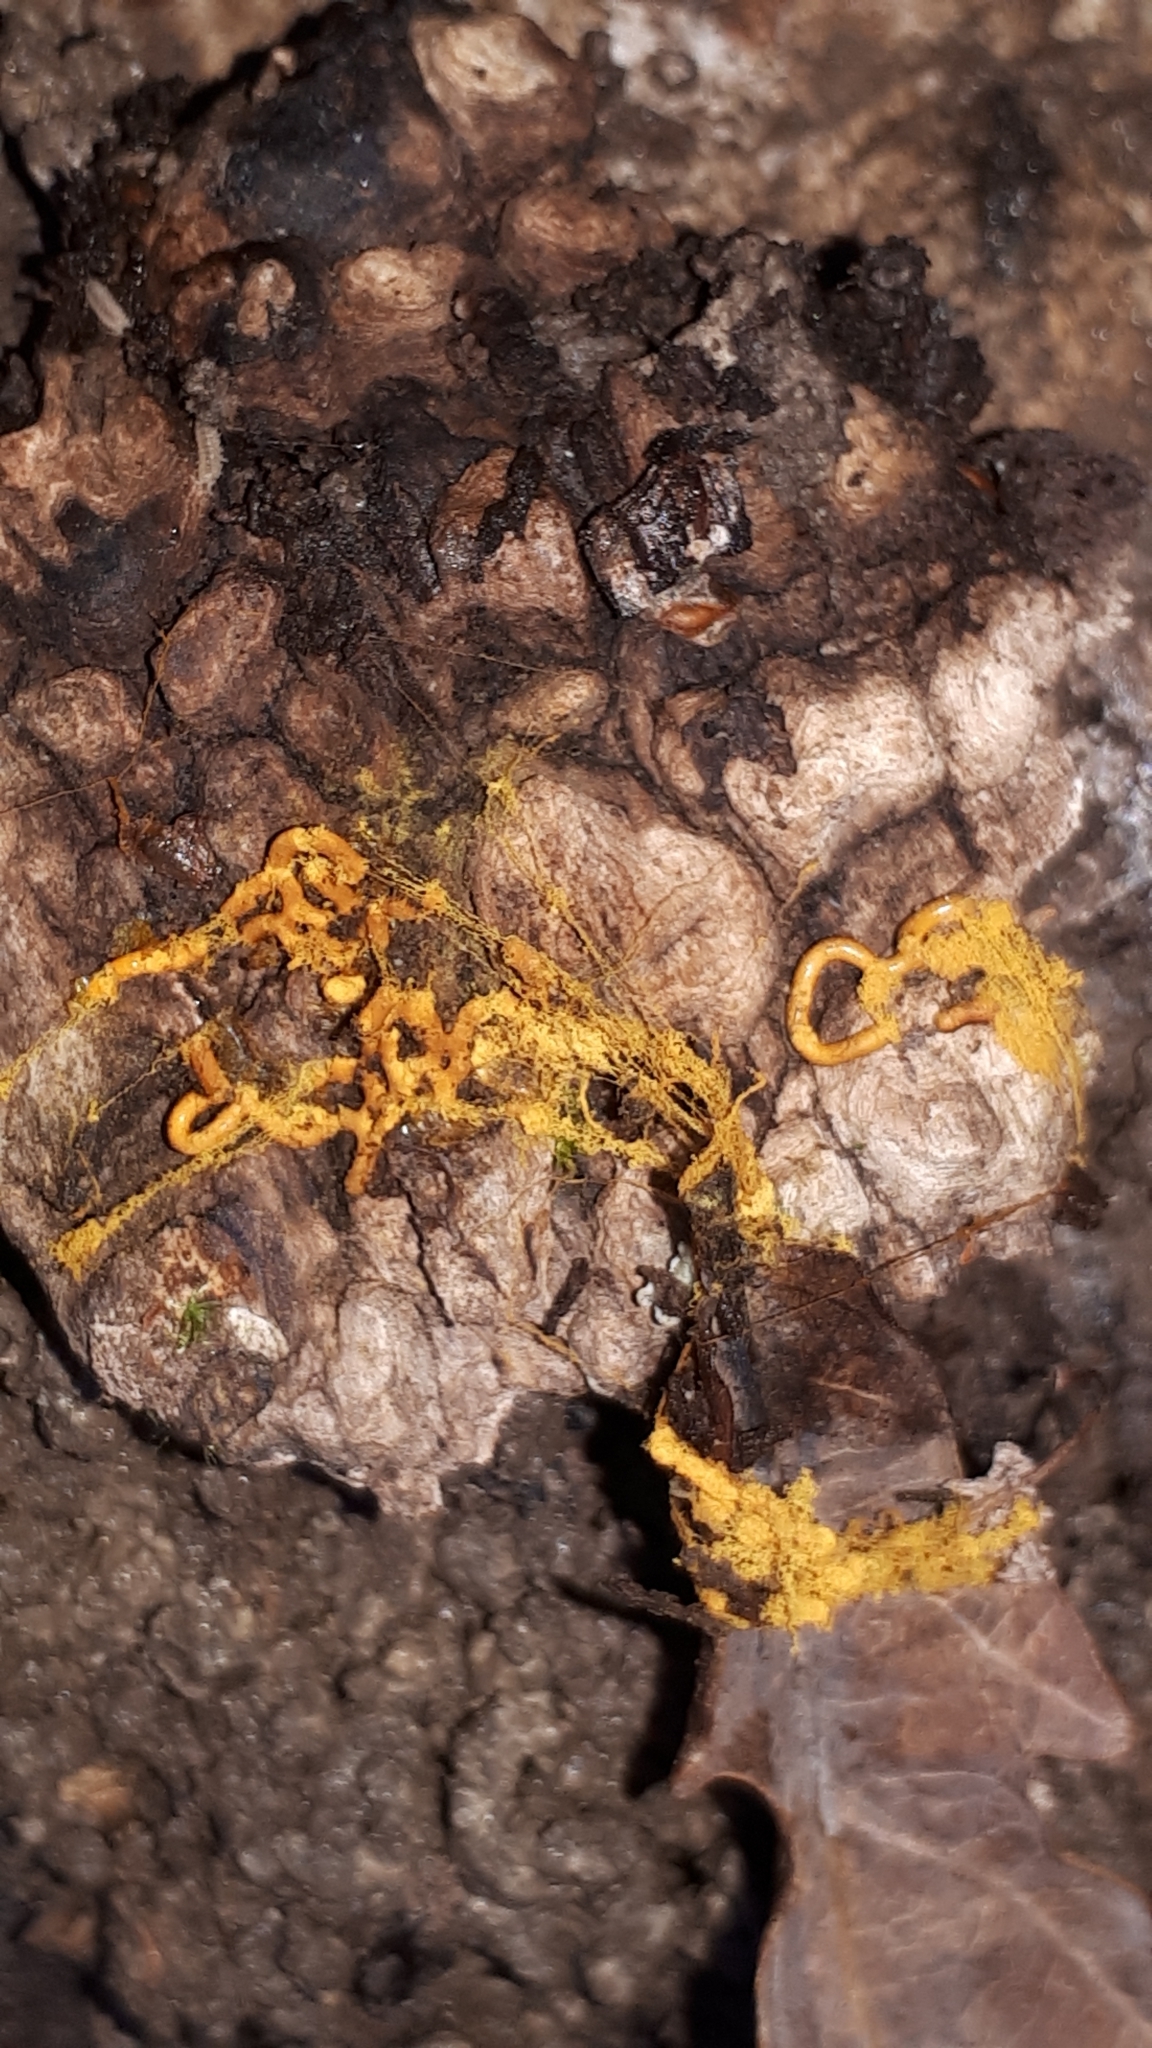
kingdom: Protozoa
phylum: Mycetozoa
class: Myxomycetes
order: Trichiales
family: Arcyriaceae
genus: Hemitrichia
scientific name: Hemitrichia serpula
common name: Pretzel slime mold
